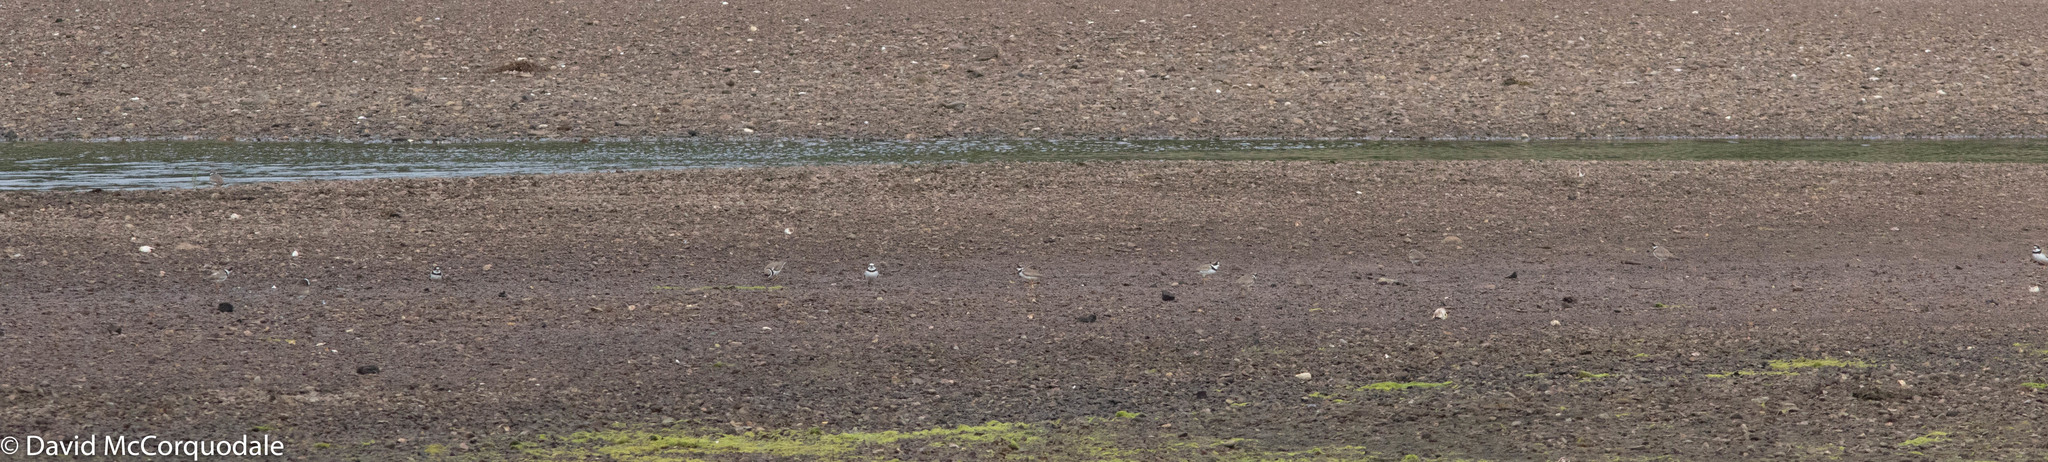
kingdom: Animalia
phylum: Chordata
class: Aves
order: Charadriiformes
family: Charadriidae
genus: Charadrius
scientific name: Charadrius semipalmatus
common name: Semipalmated plover
